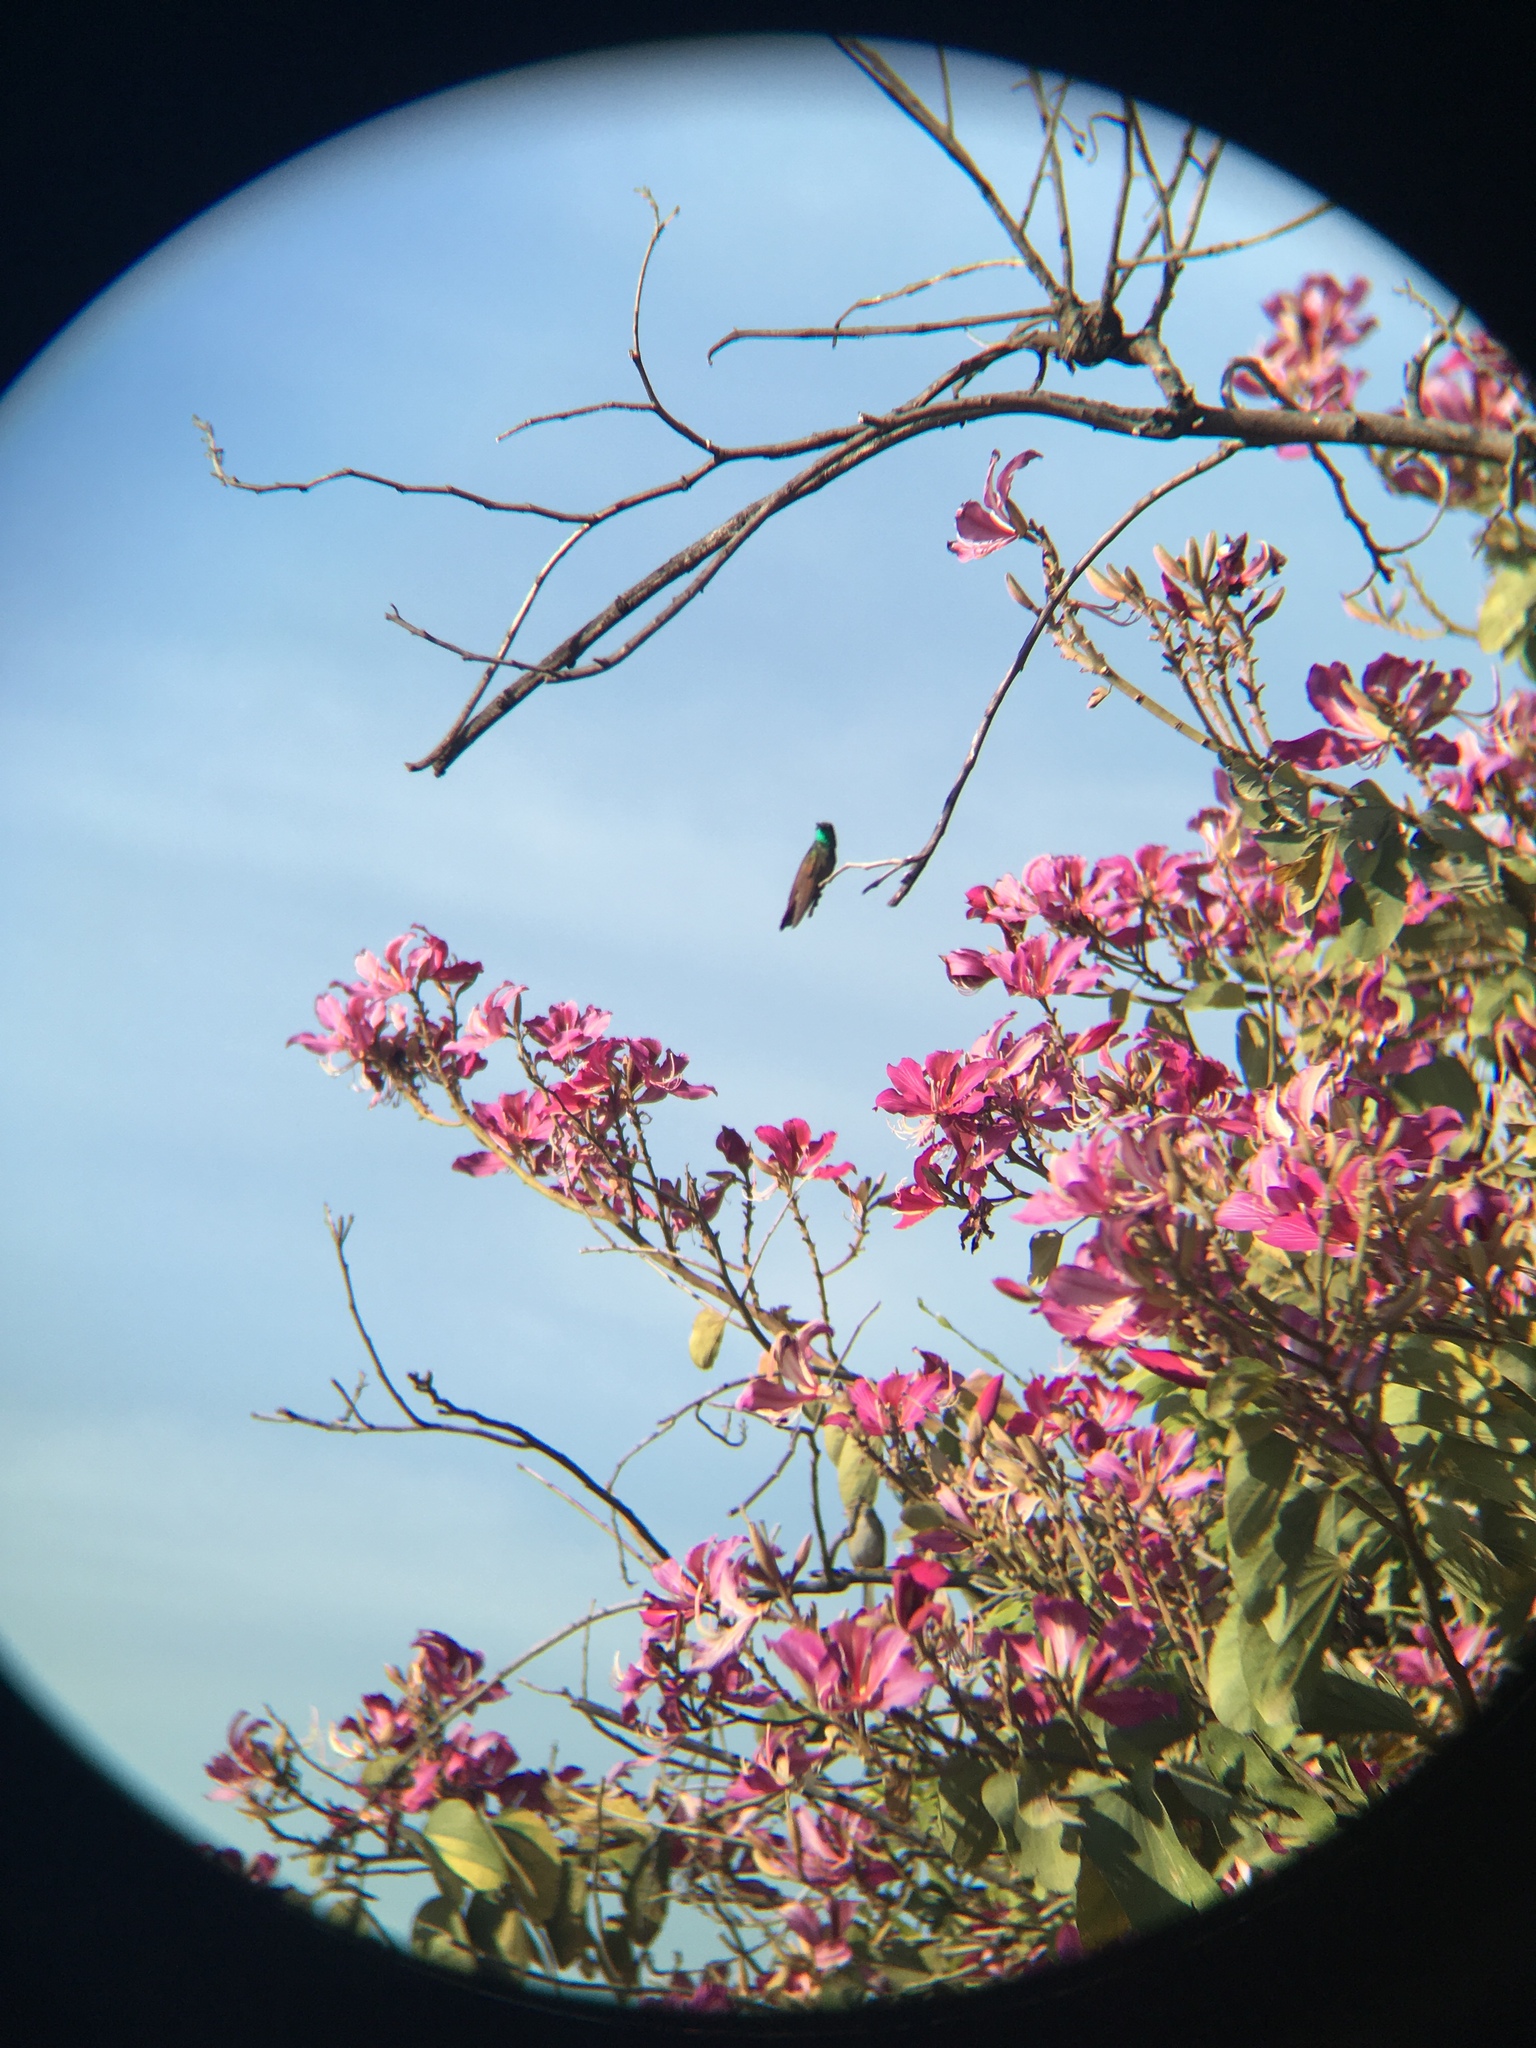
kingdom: Animalia
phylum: Chordata
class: Aves
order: Apodiformes
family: Trochilidae
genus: Saucerottia
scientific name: Saucerottia beryllina
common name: Berylline hummingbird
